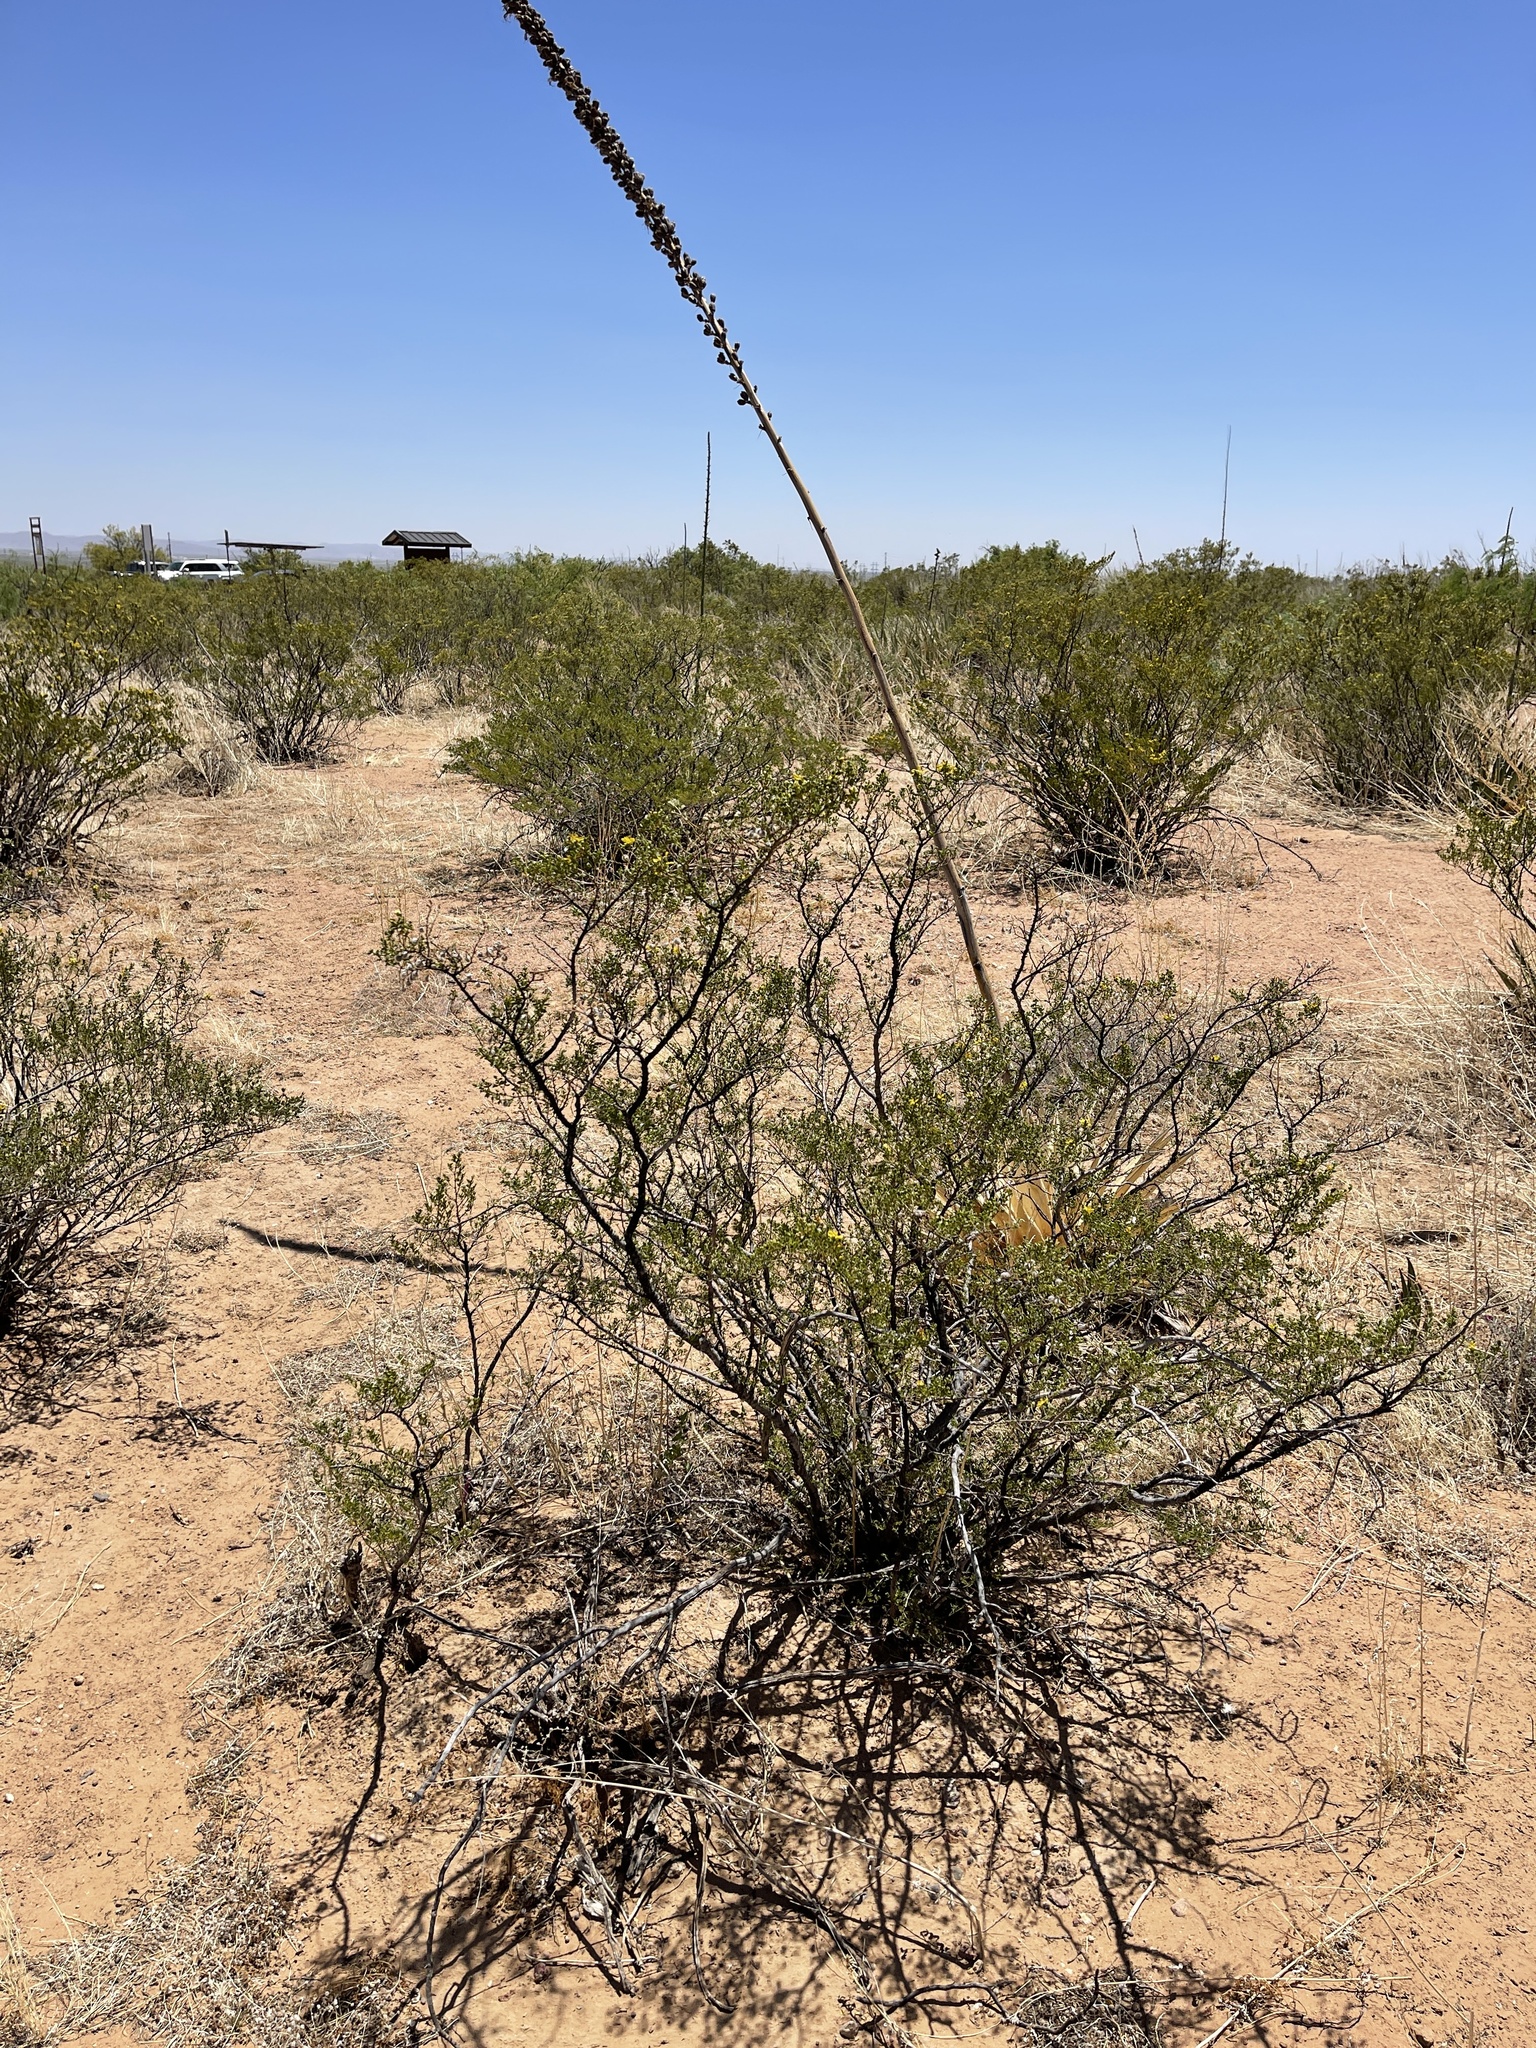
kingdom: Plantae
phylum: Tracheophyta
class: Magnoliopsida
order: Zygophyllales
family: Zygophyllaceae
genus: Larrea
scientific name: Larrea tridentata
